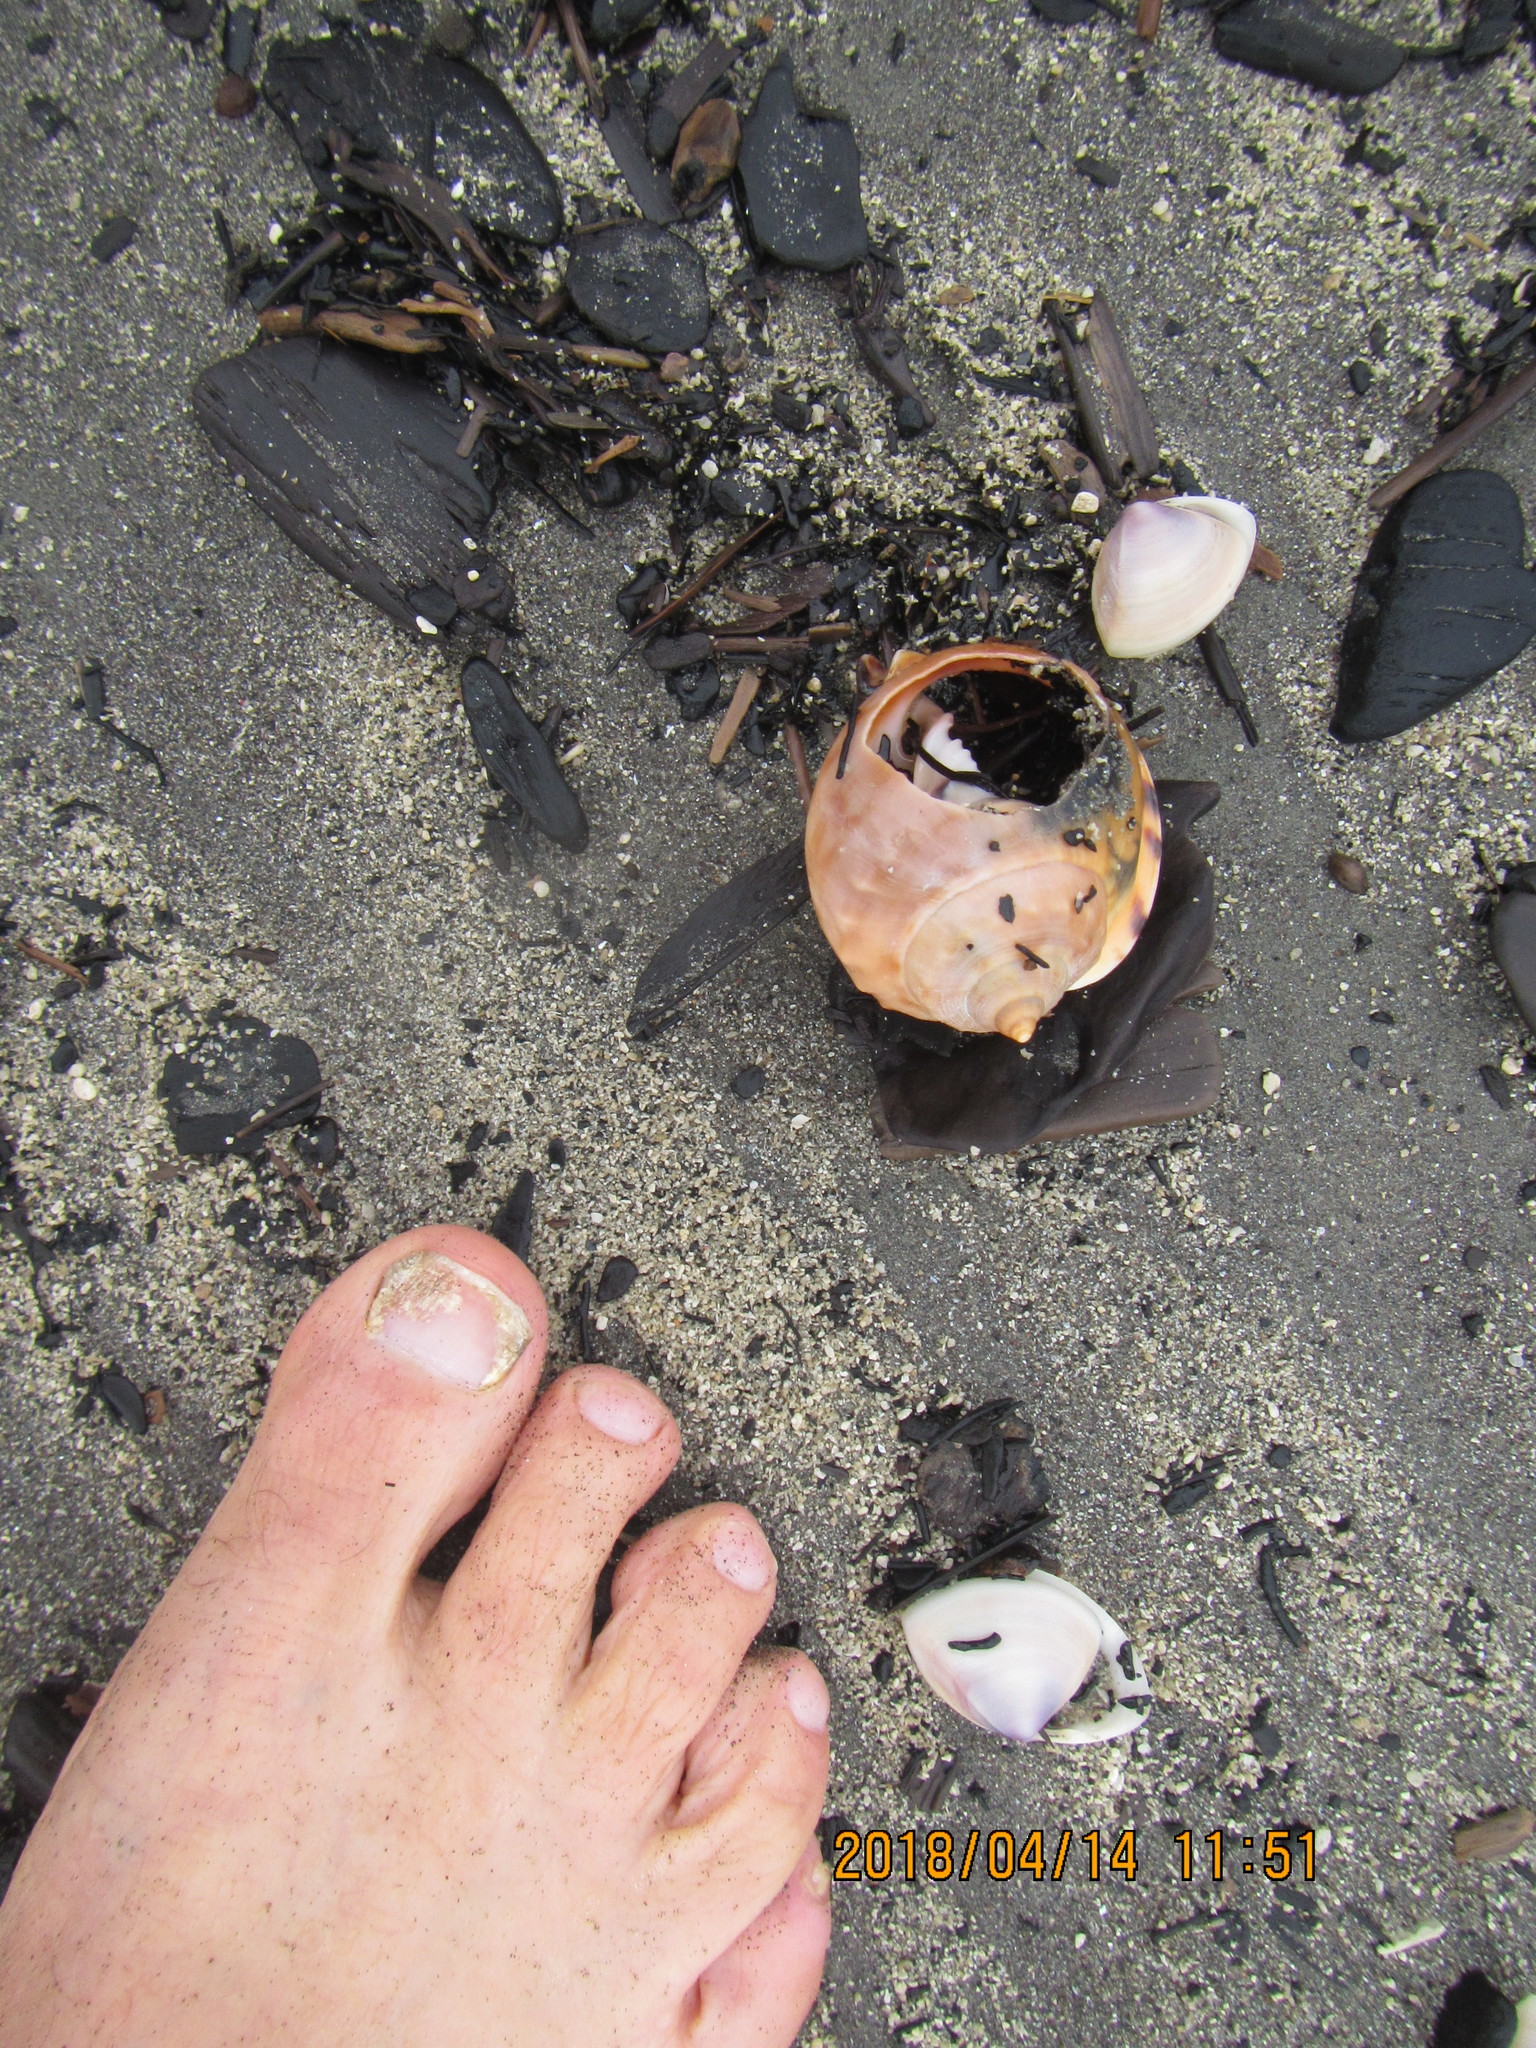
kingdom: Animalia
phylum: Mollusca
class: Gastropoda
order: Littorinimorpha
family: Cassidae
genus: Semicassis
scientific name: Semicassis pyrum
